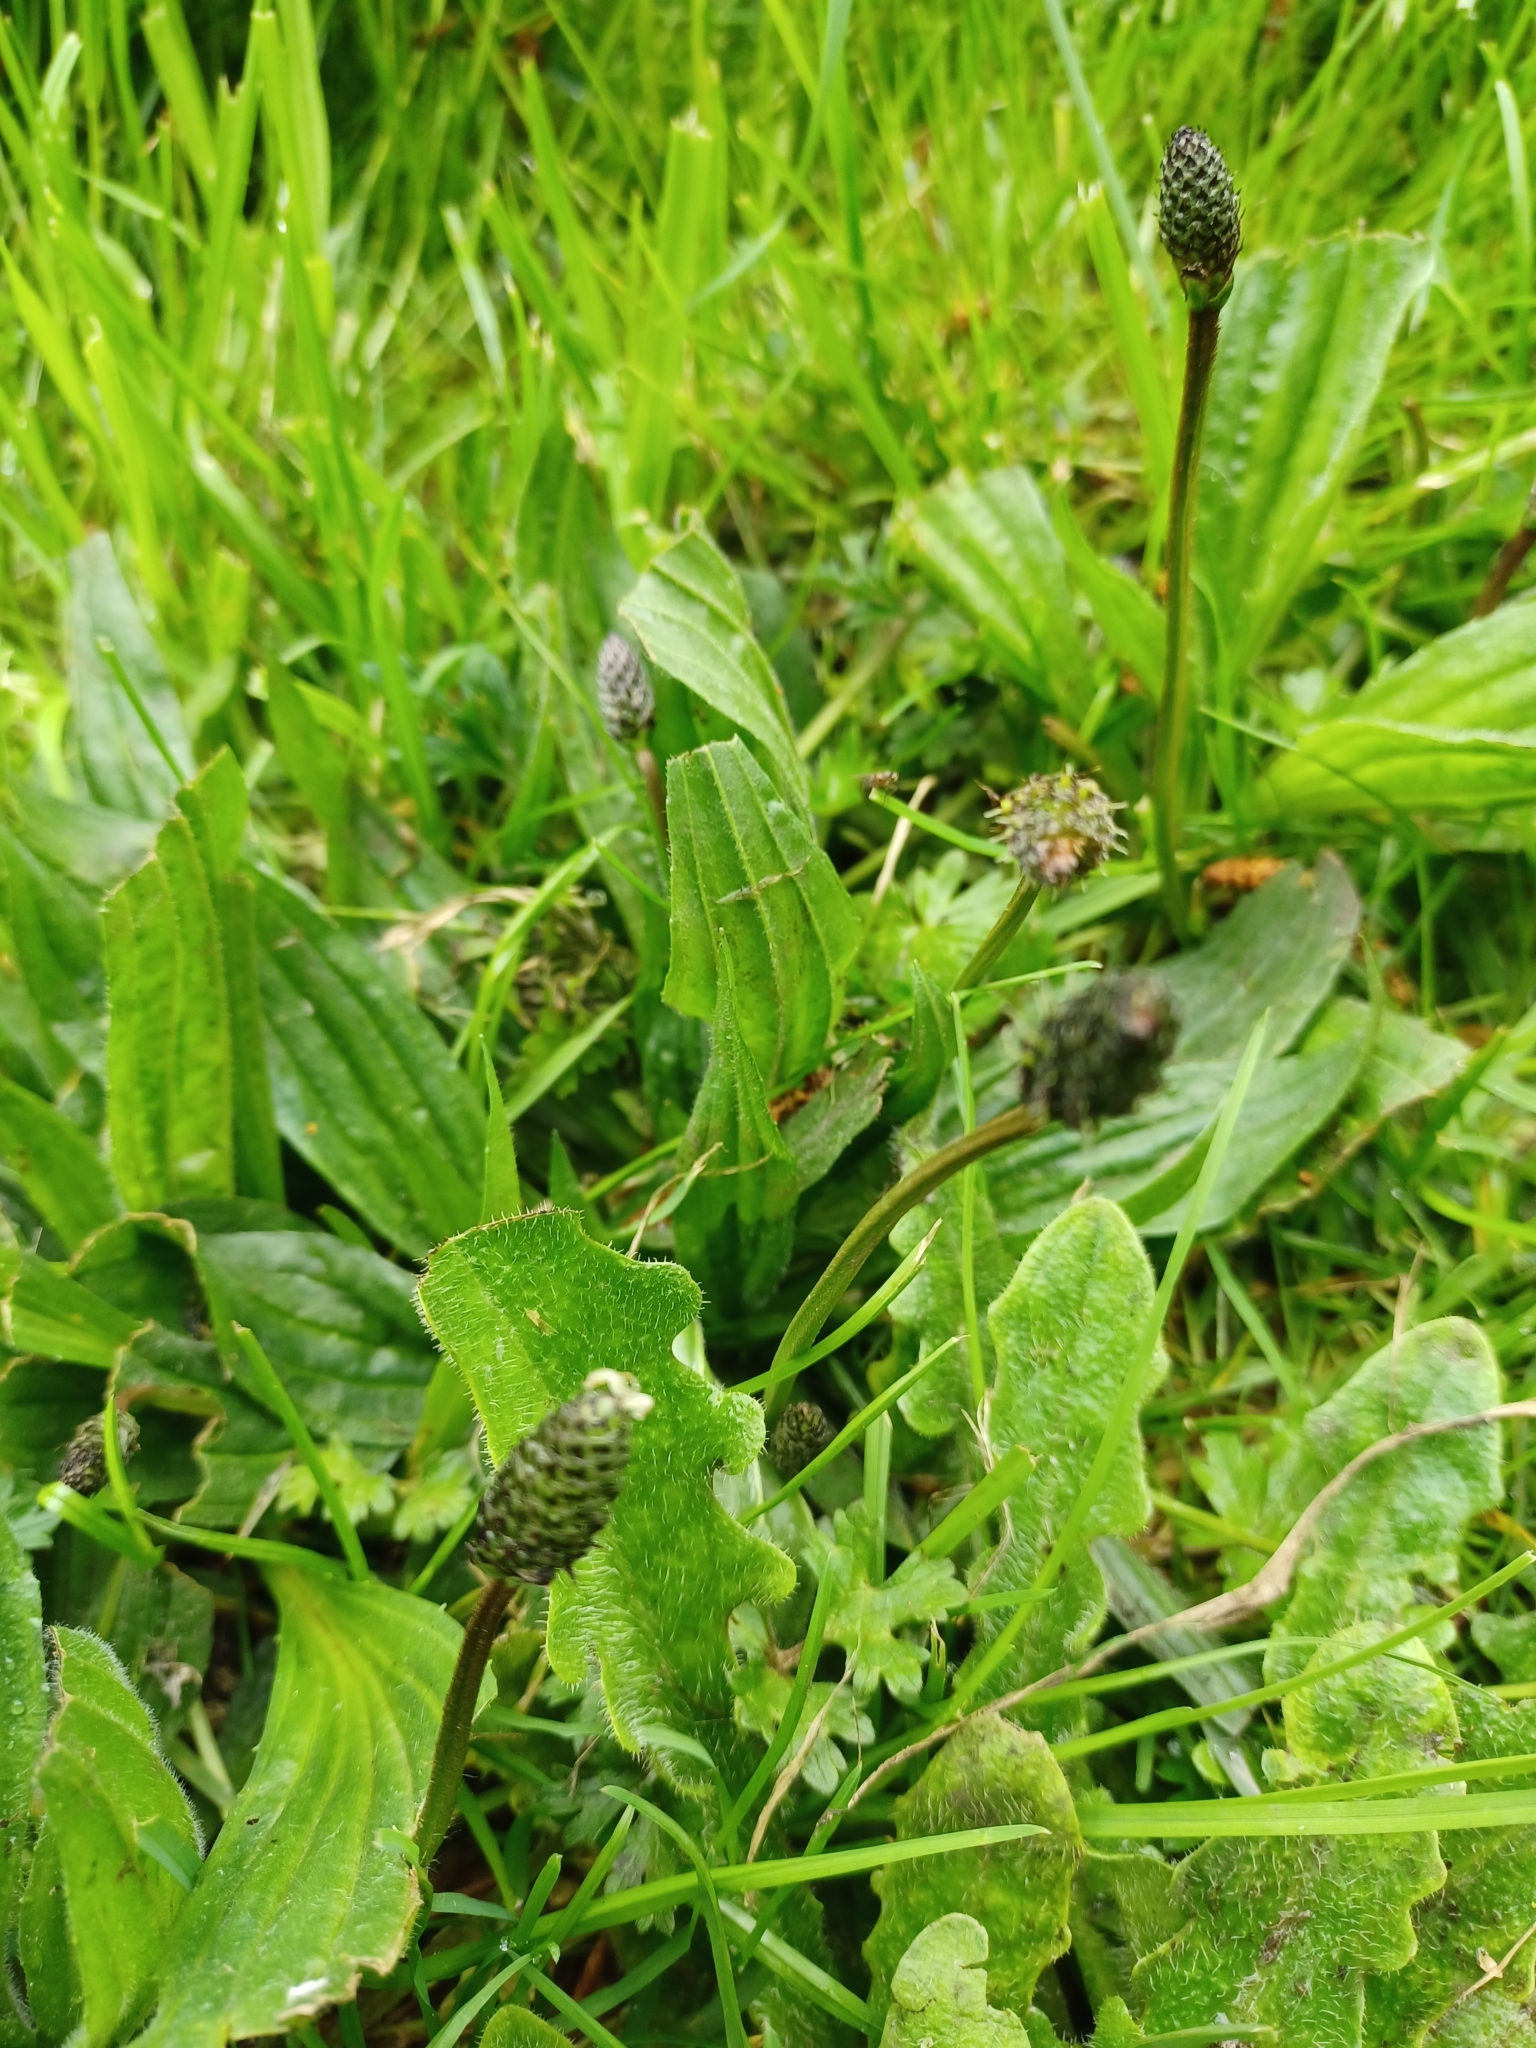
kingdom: Plantae
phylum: Tracheophyta
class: Magnoliopsida
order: Lamiales
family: Plantaginaceae
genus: Plantago
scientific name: Plantago lanceolata
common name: Ribwort plantain
